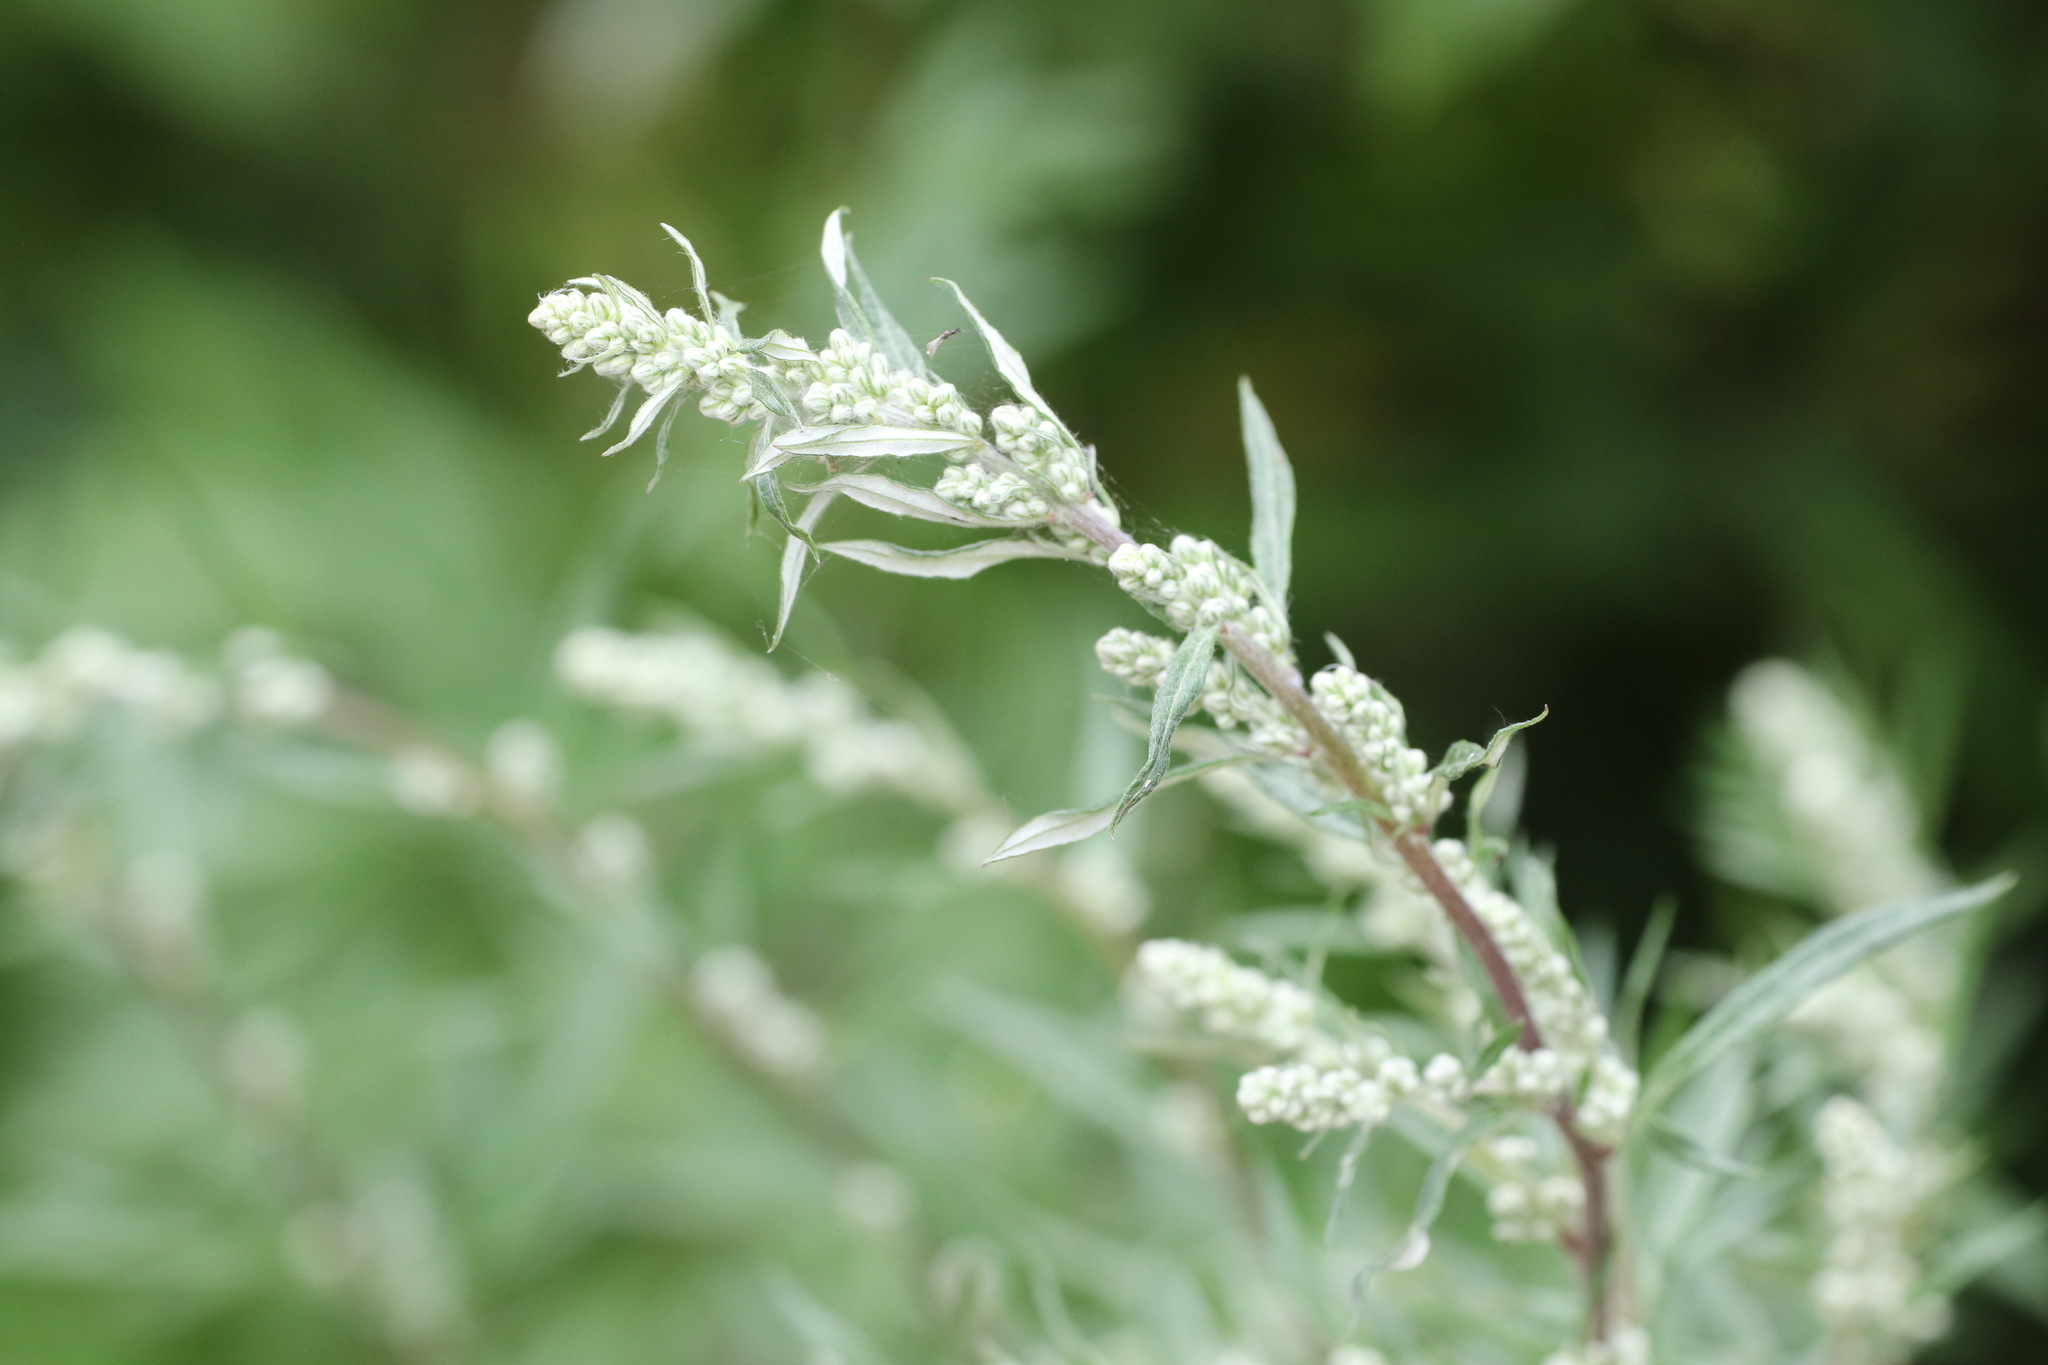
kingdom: Plantae
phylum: Tracheophyta
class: Magnoliopsida
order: Asterales
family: Asteraceae
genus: Artemisia
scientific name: Artemisia vulgaris
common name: Mugwort
